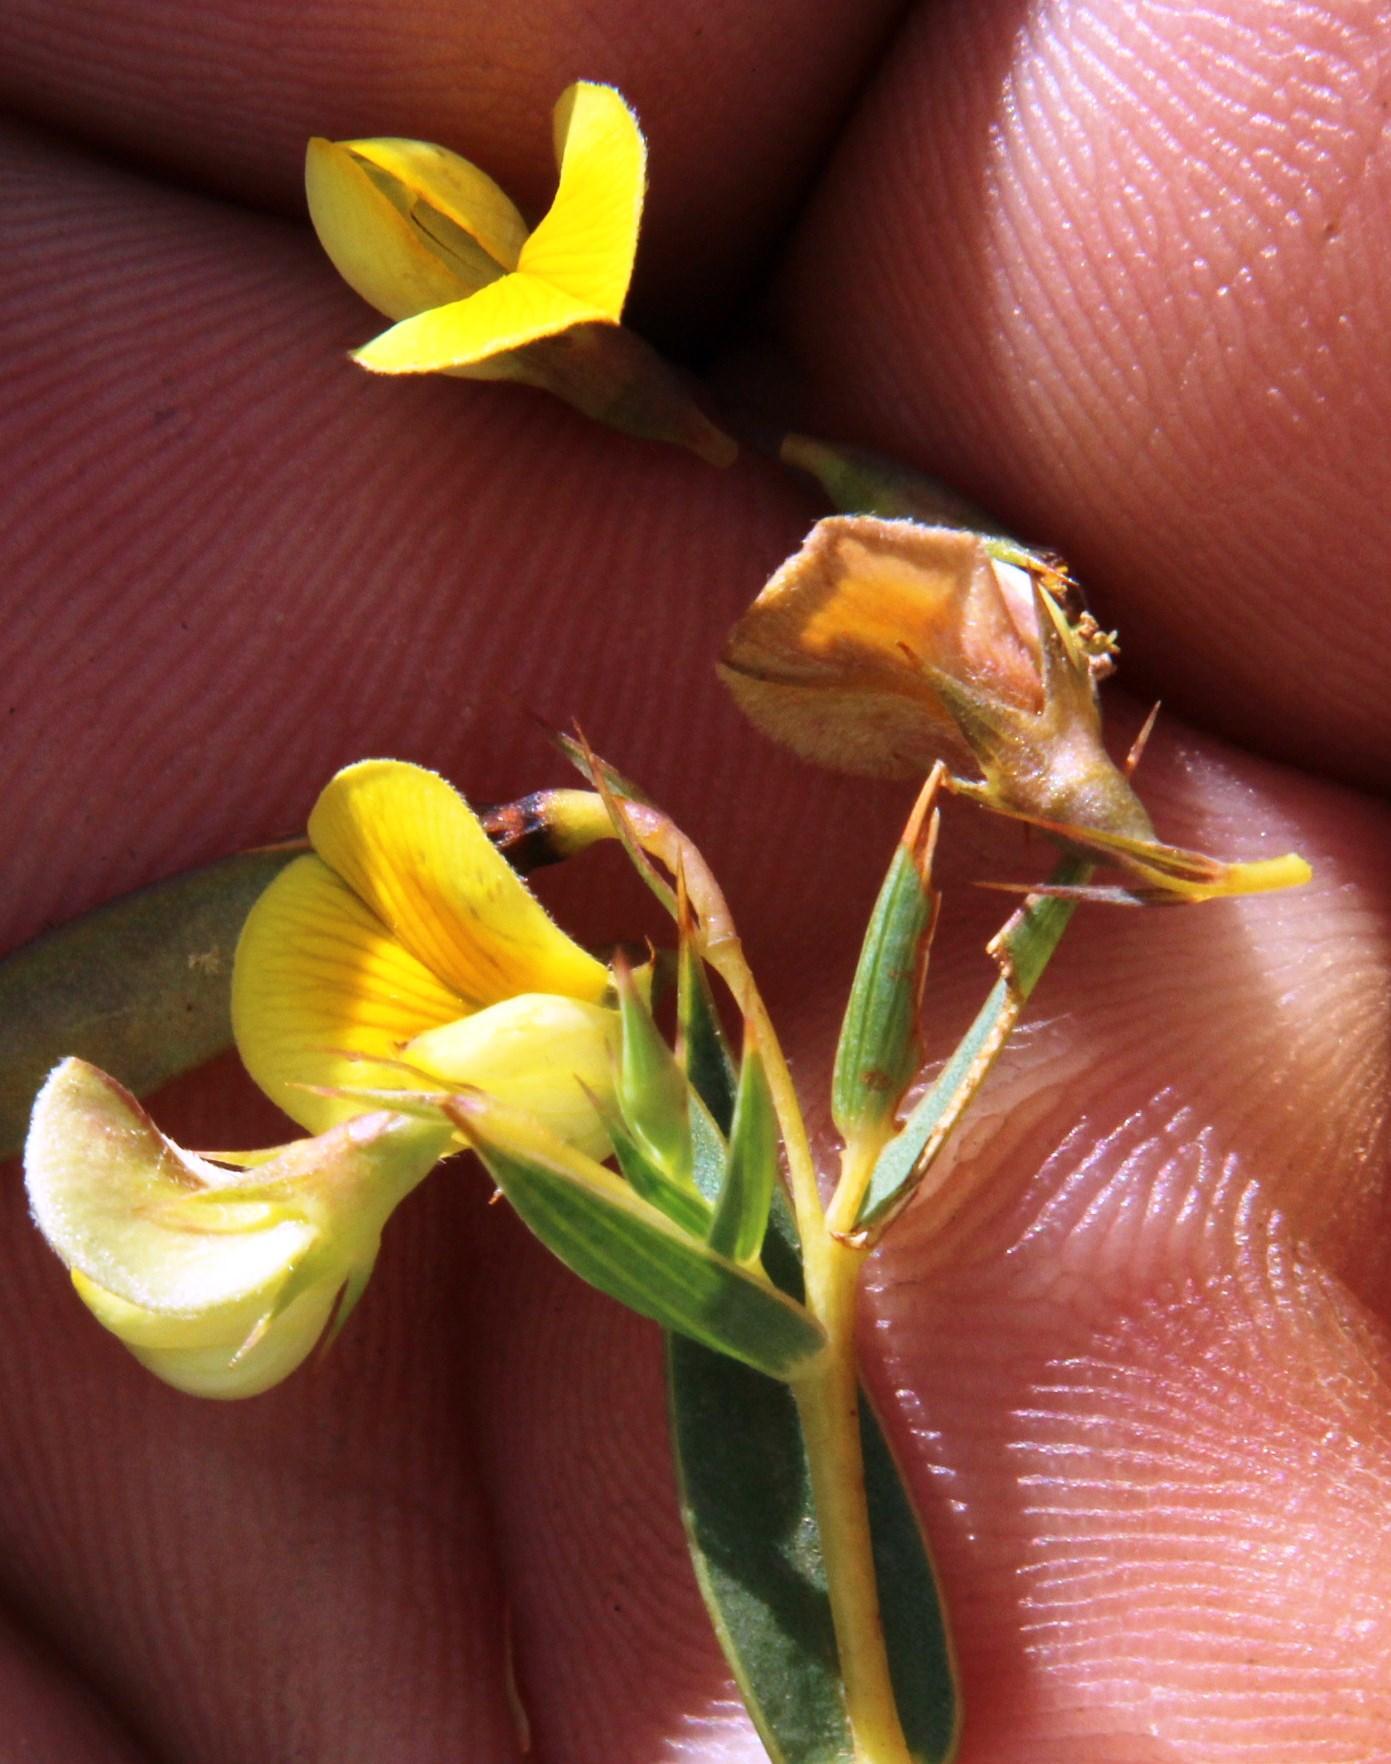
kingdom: Plantae
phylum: Tracheophyta
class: Magnoliopsida
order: Fabales
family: Fabaceae
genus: Aspalathus
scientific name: Aspalathus alpestris
